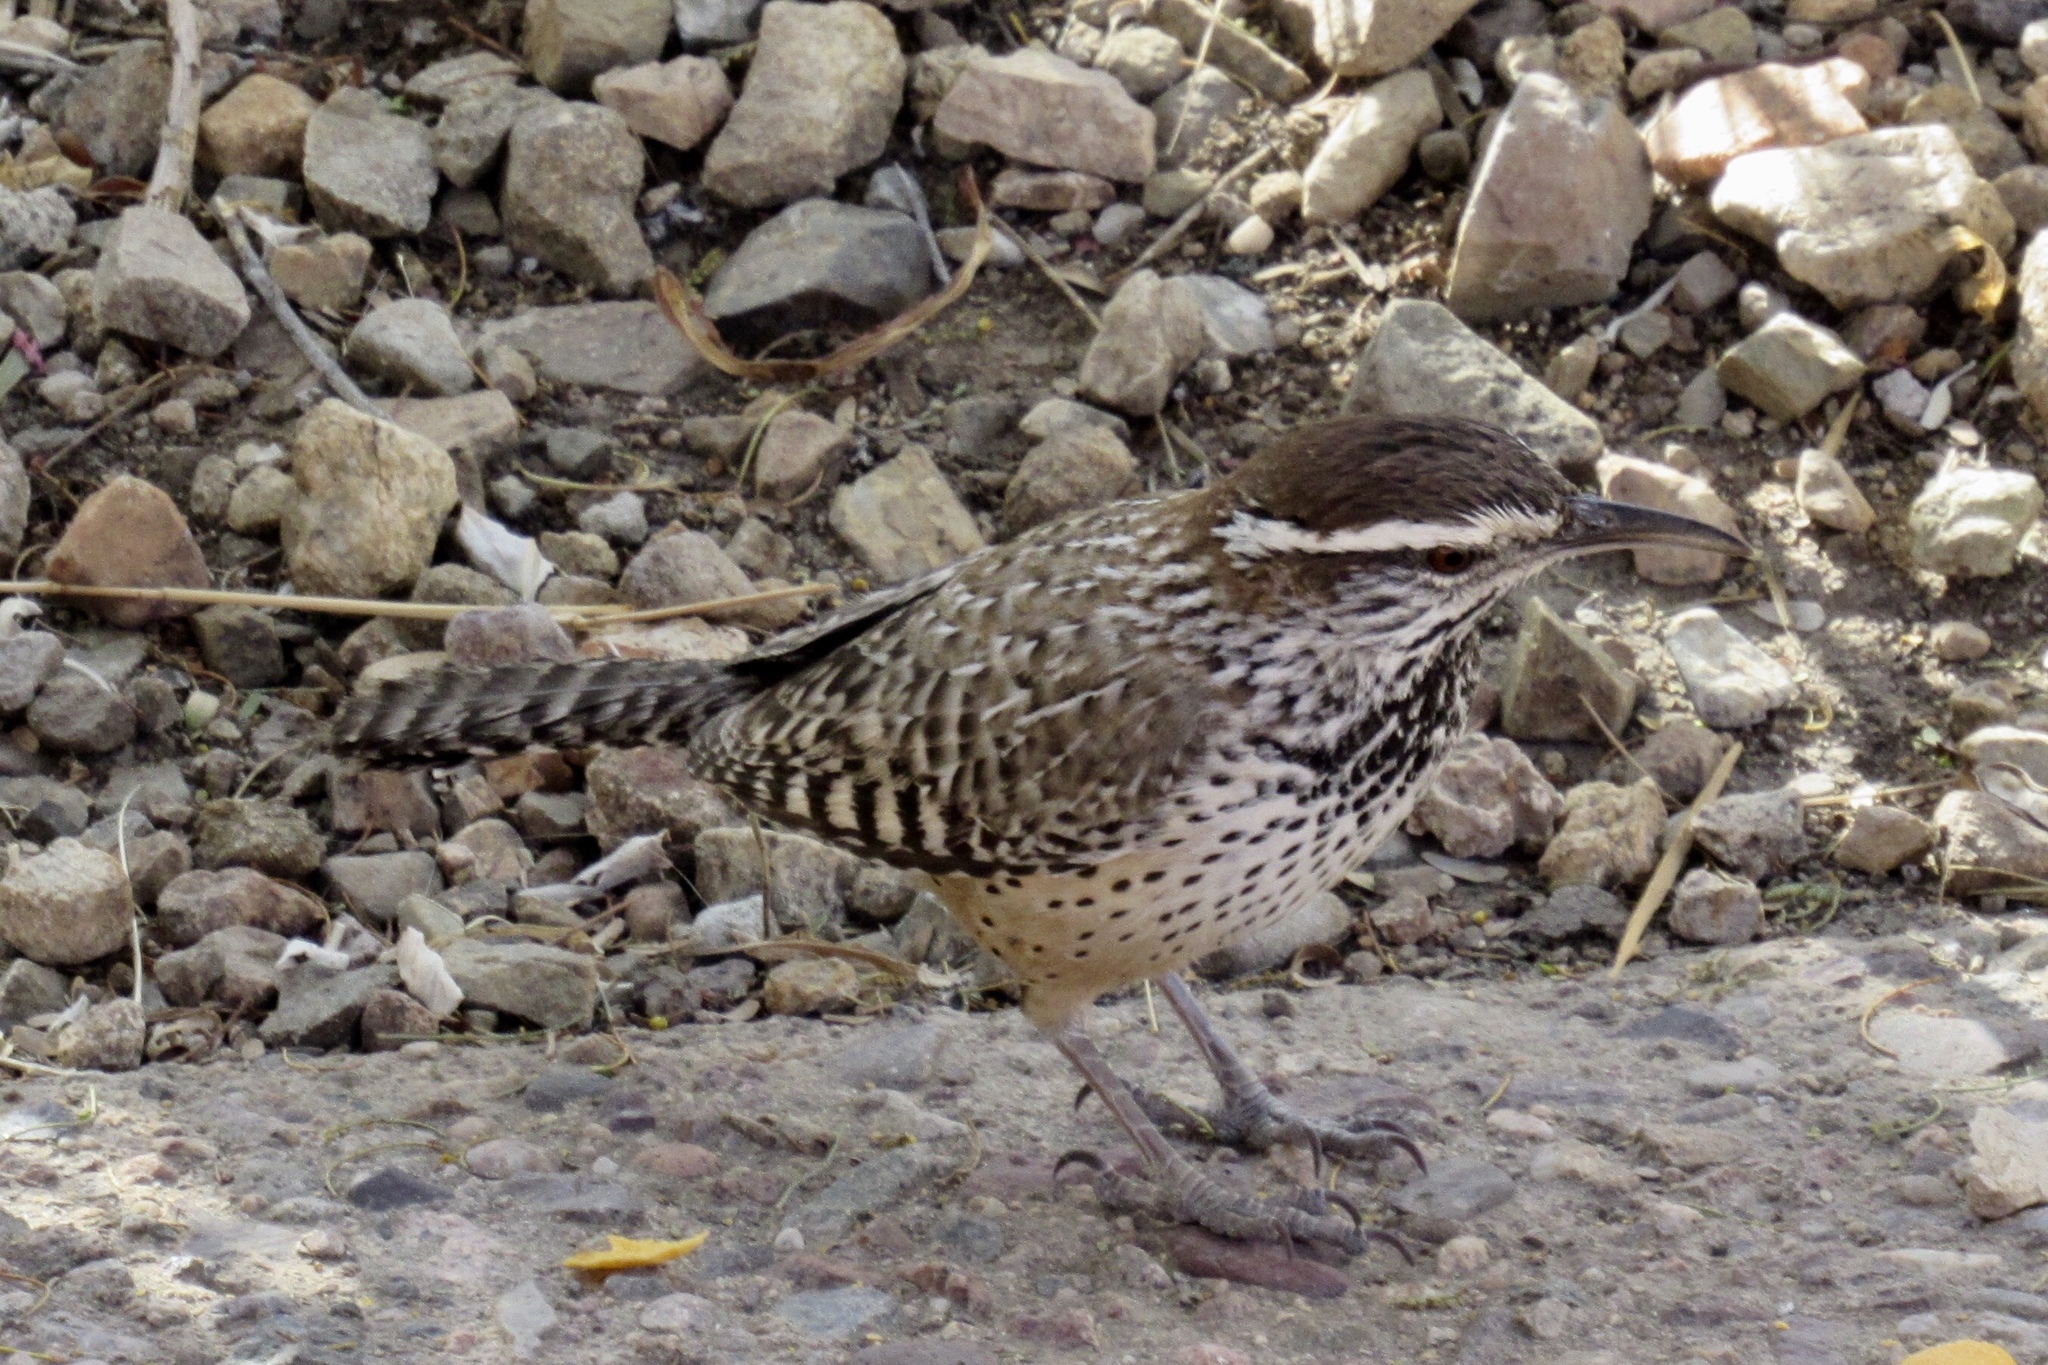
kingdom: Animalia
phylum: Chordata
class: Aves
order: Passeriformes
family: Troglodytidae
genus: Campylorhynchus
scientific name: Campylorhynchus brunneicapillus
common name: Cactus wren
